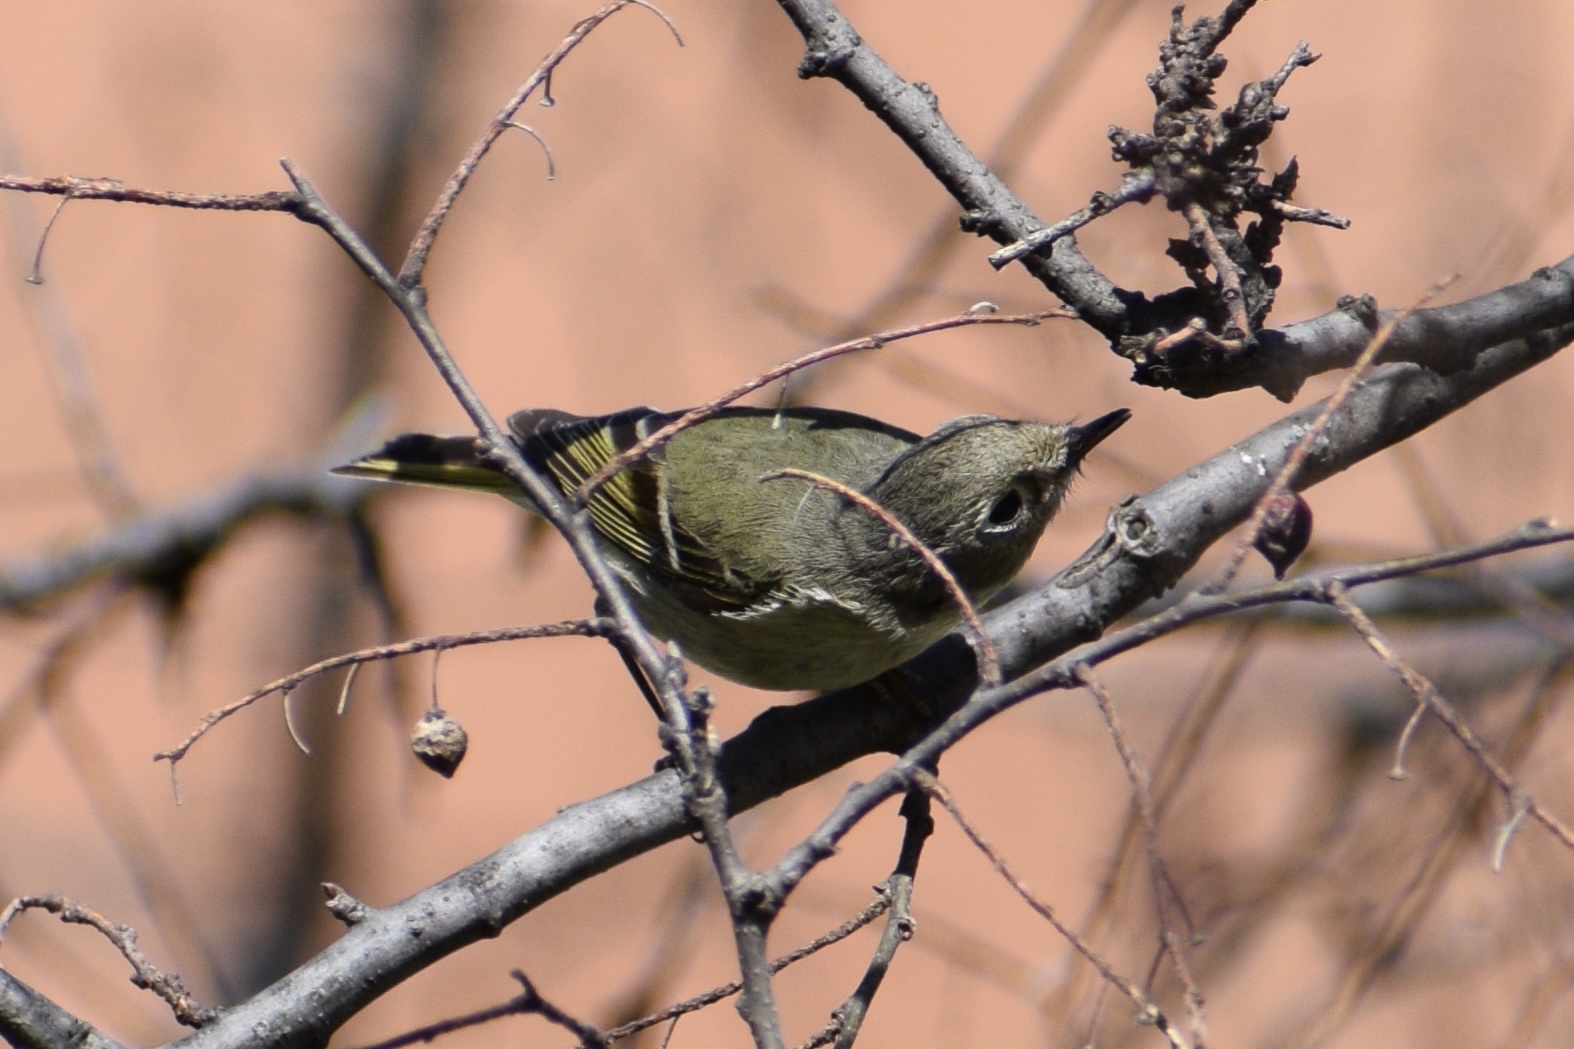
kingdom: Animalia
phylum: Chordata
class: Aves
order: Passeriformes
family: Regulidae
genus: Regulus
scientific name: Regulus calendula
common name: Ruby-crowned kinglet
